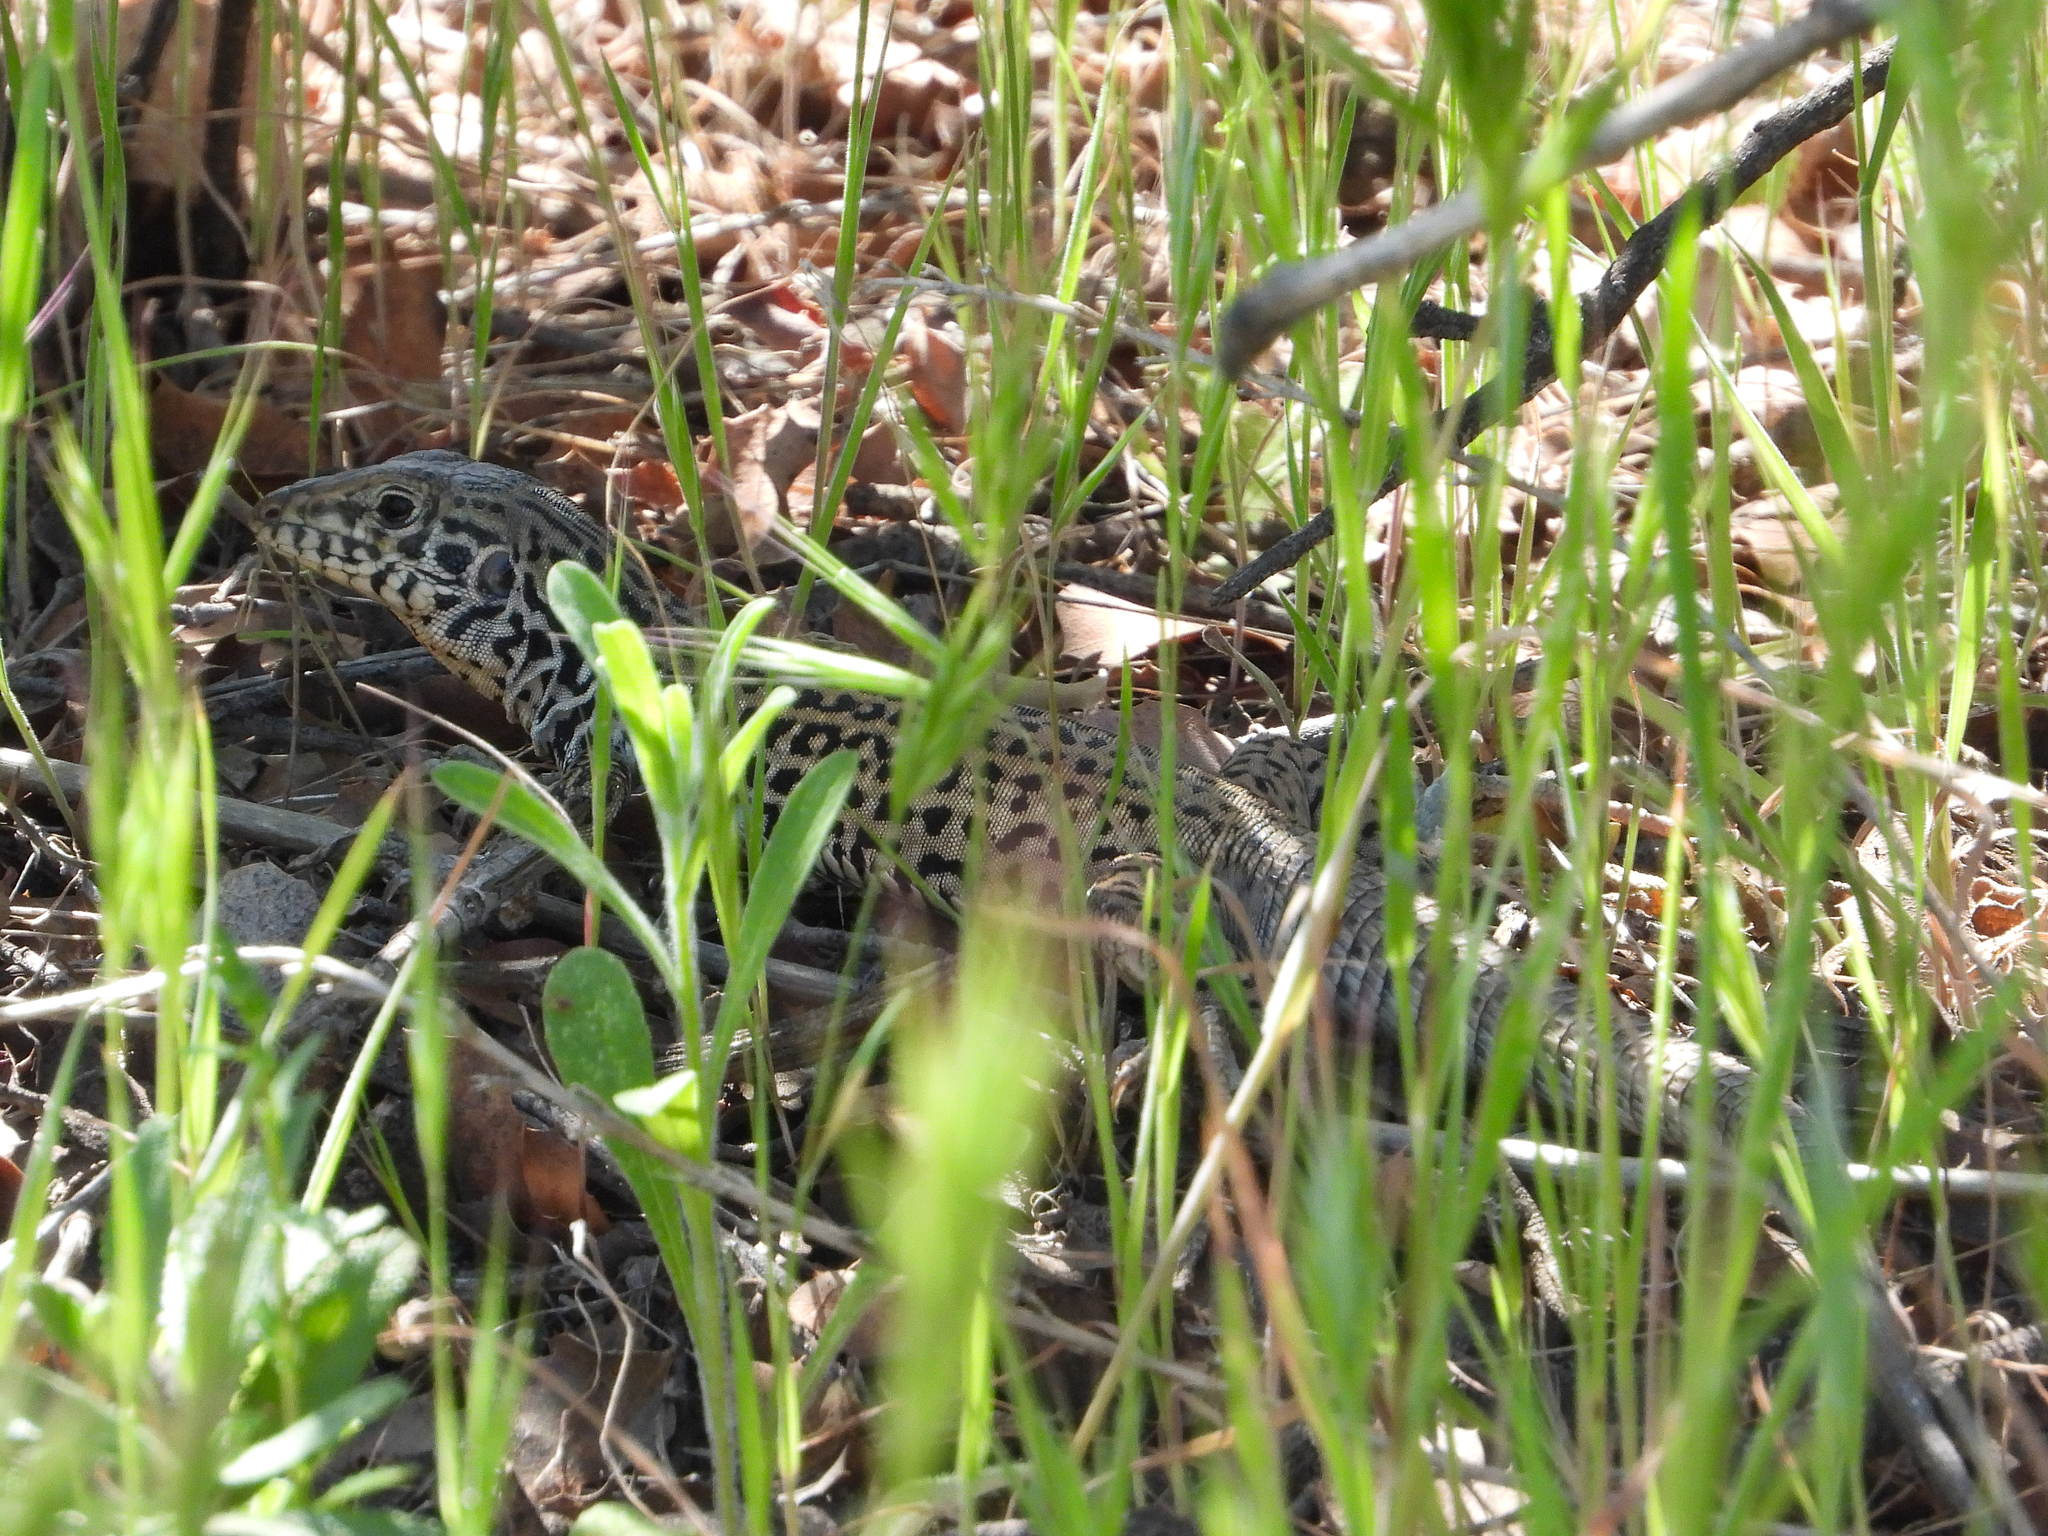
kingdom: Animalia
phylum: Chordata
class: Squamata
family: Teiidae
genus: Aspidoscelis
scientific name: Aspidoscelis tigris
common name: Tiger whiptail
